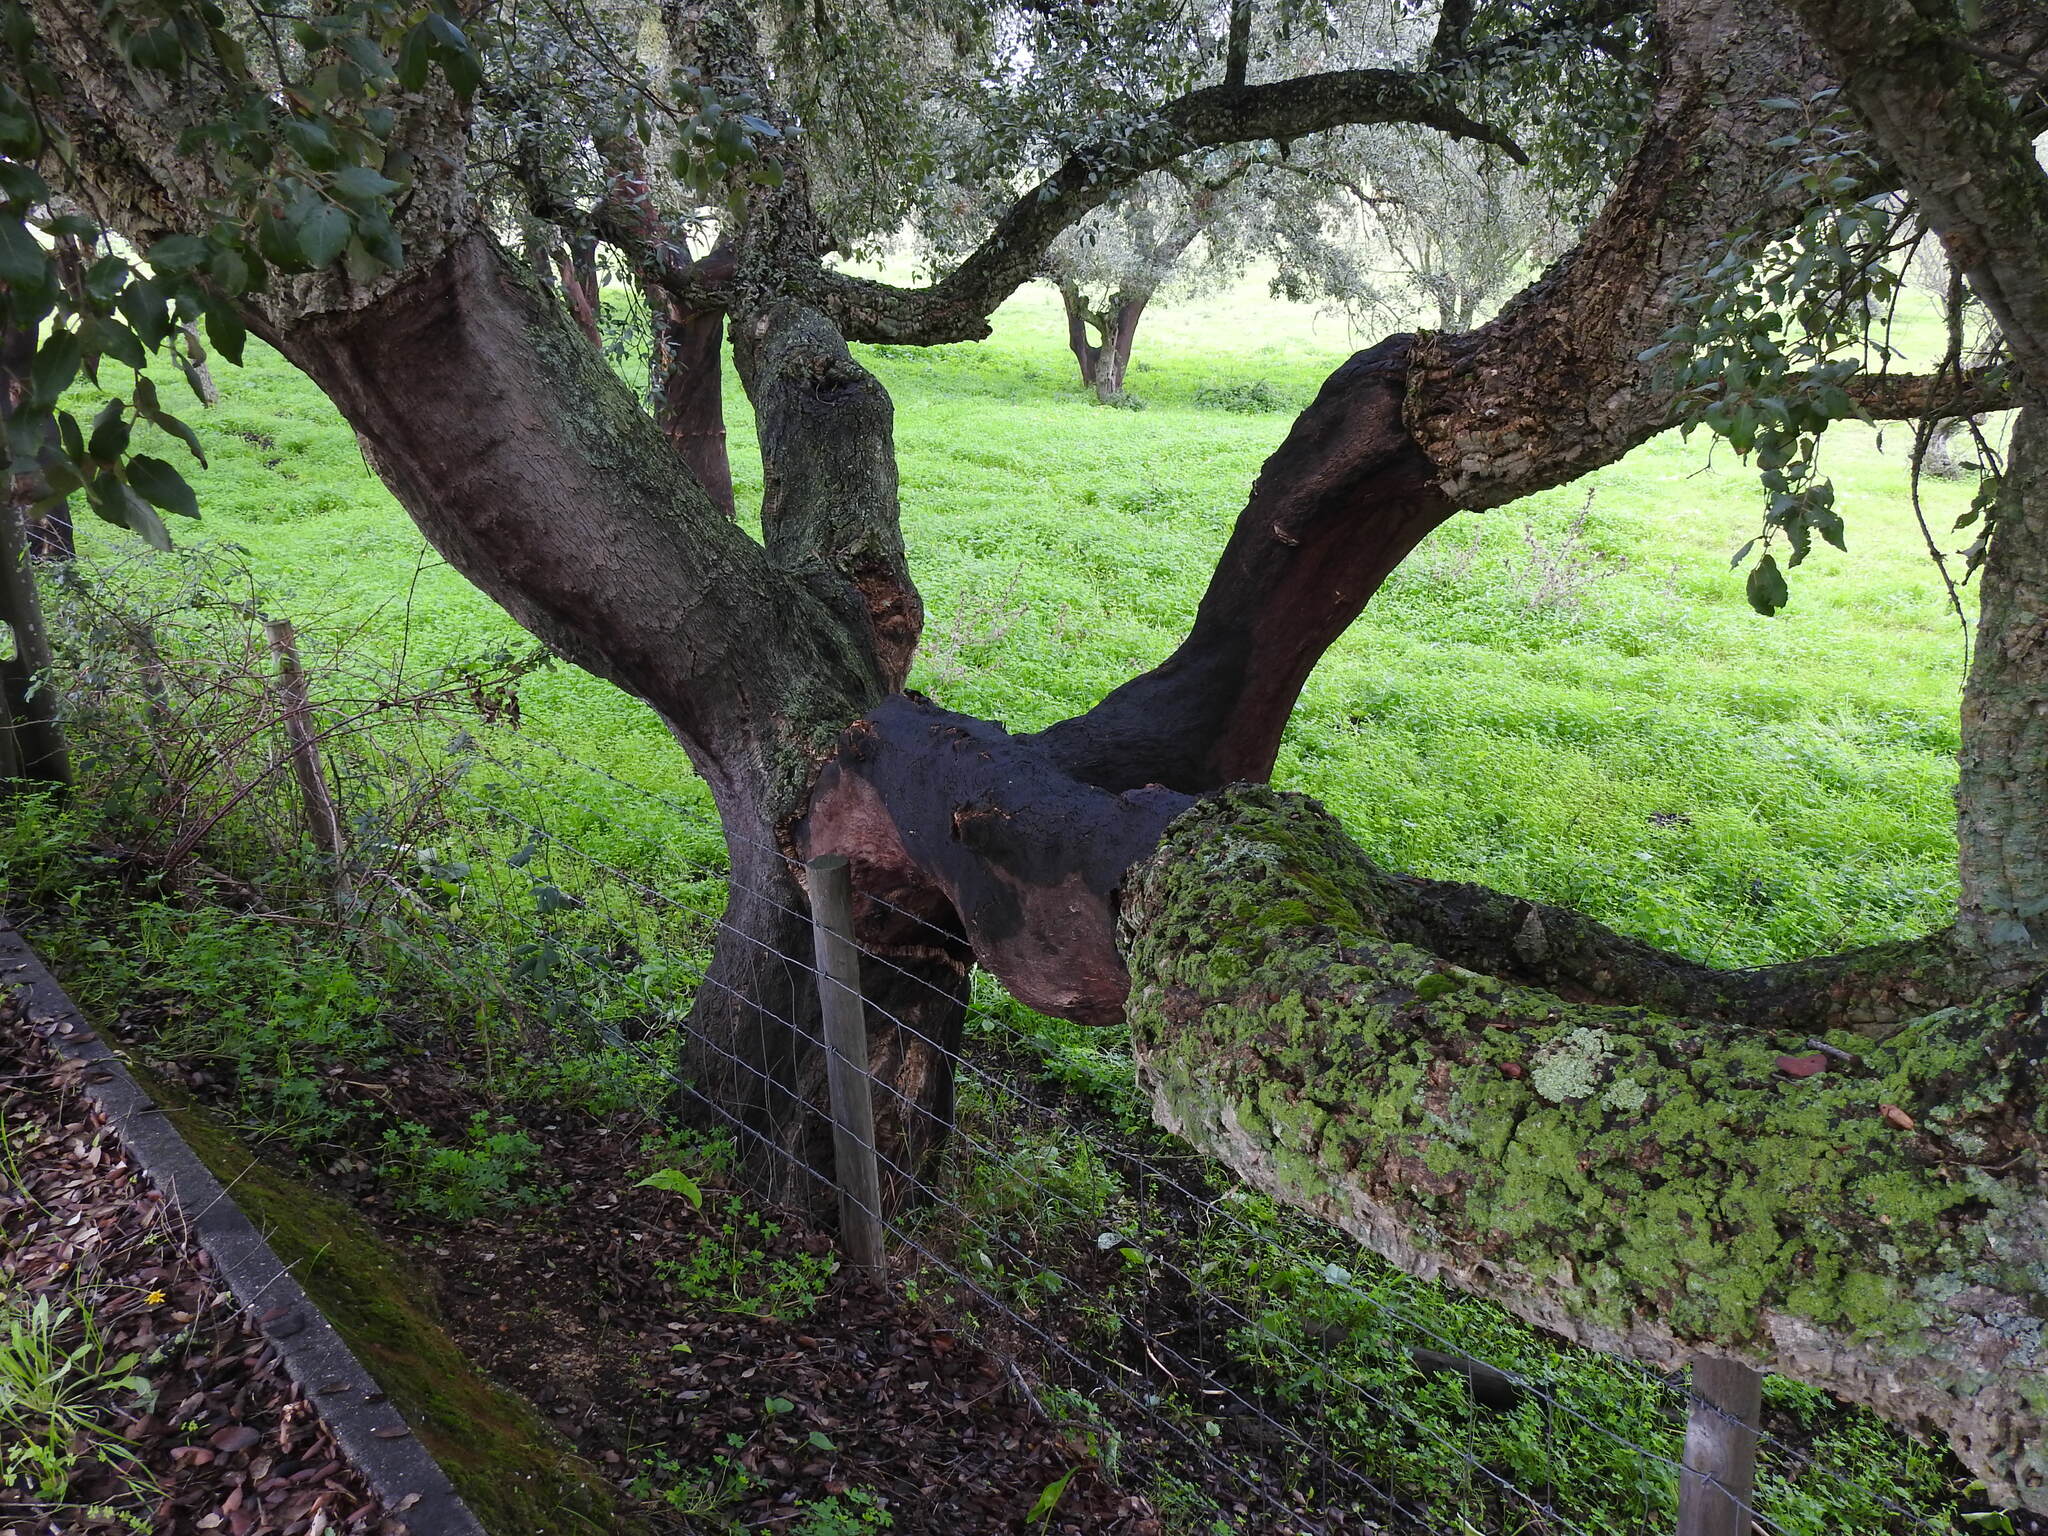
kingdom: Plantae
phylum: Tracheophyta
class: Magnoliopsida
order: Fagales
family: Fagaceae
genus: Quercus
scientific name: Quercus suber
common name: Cork oak
